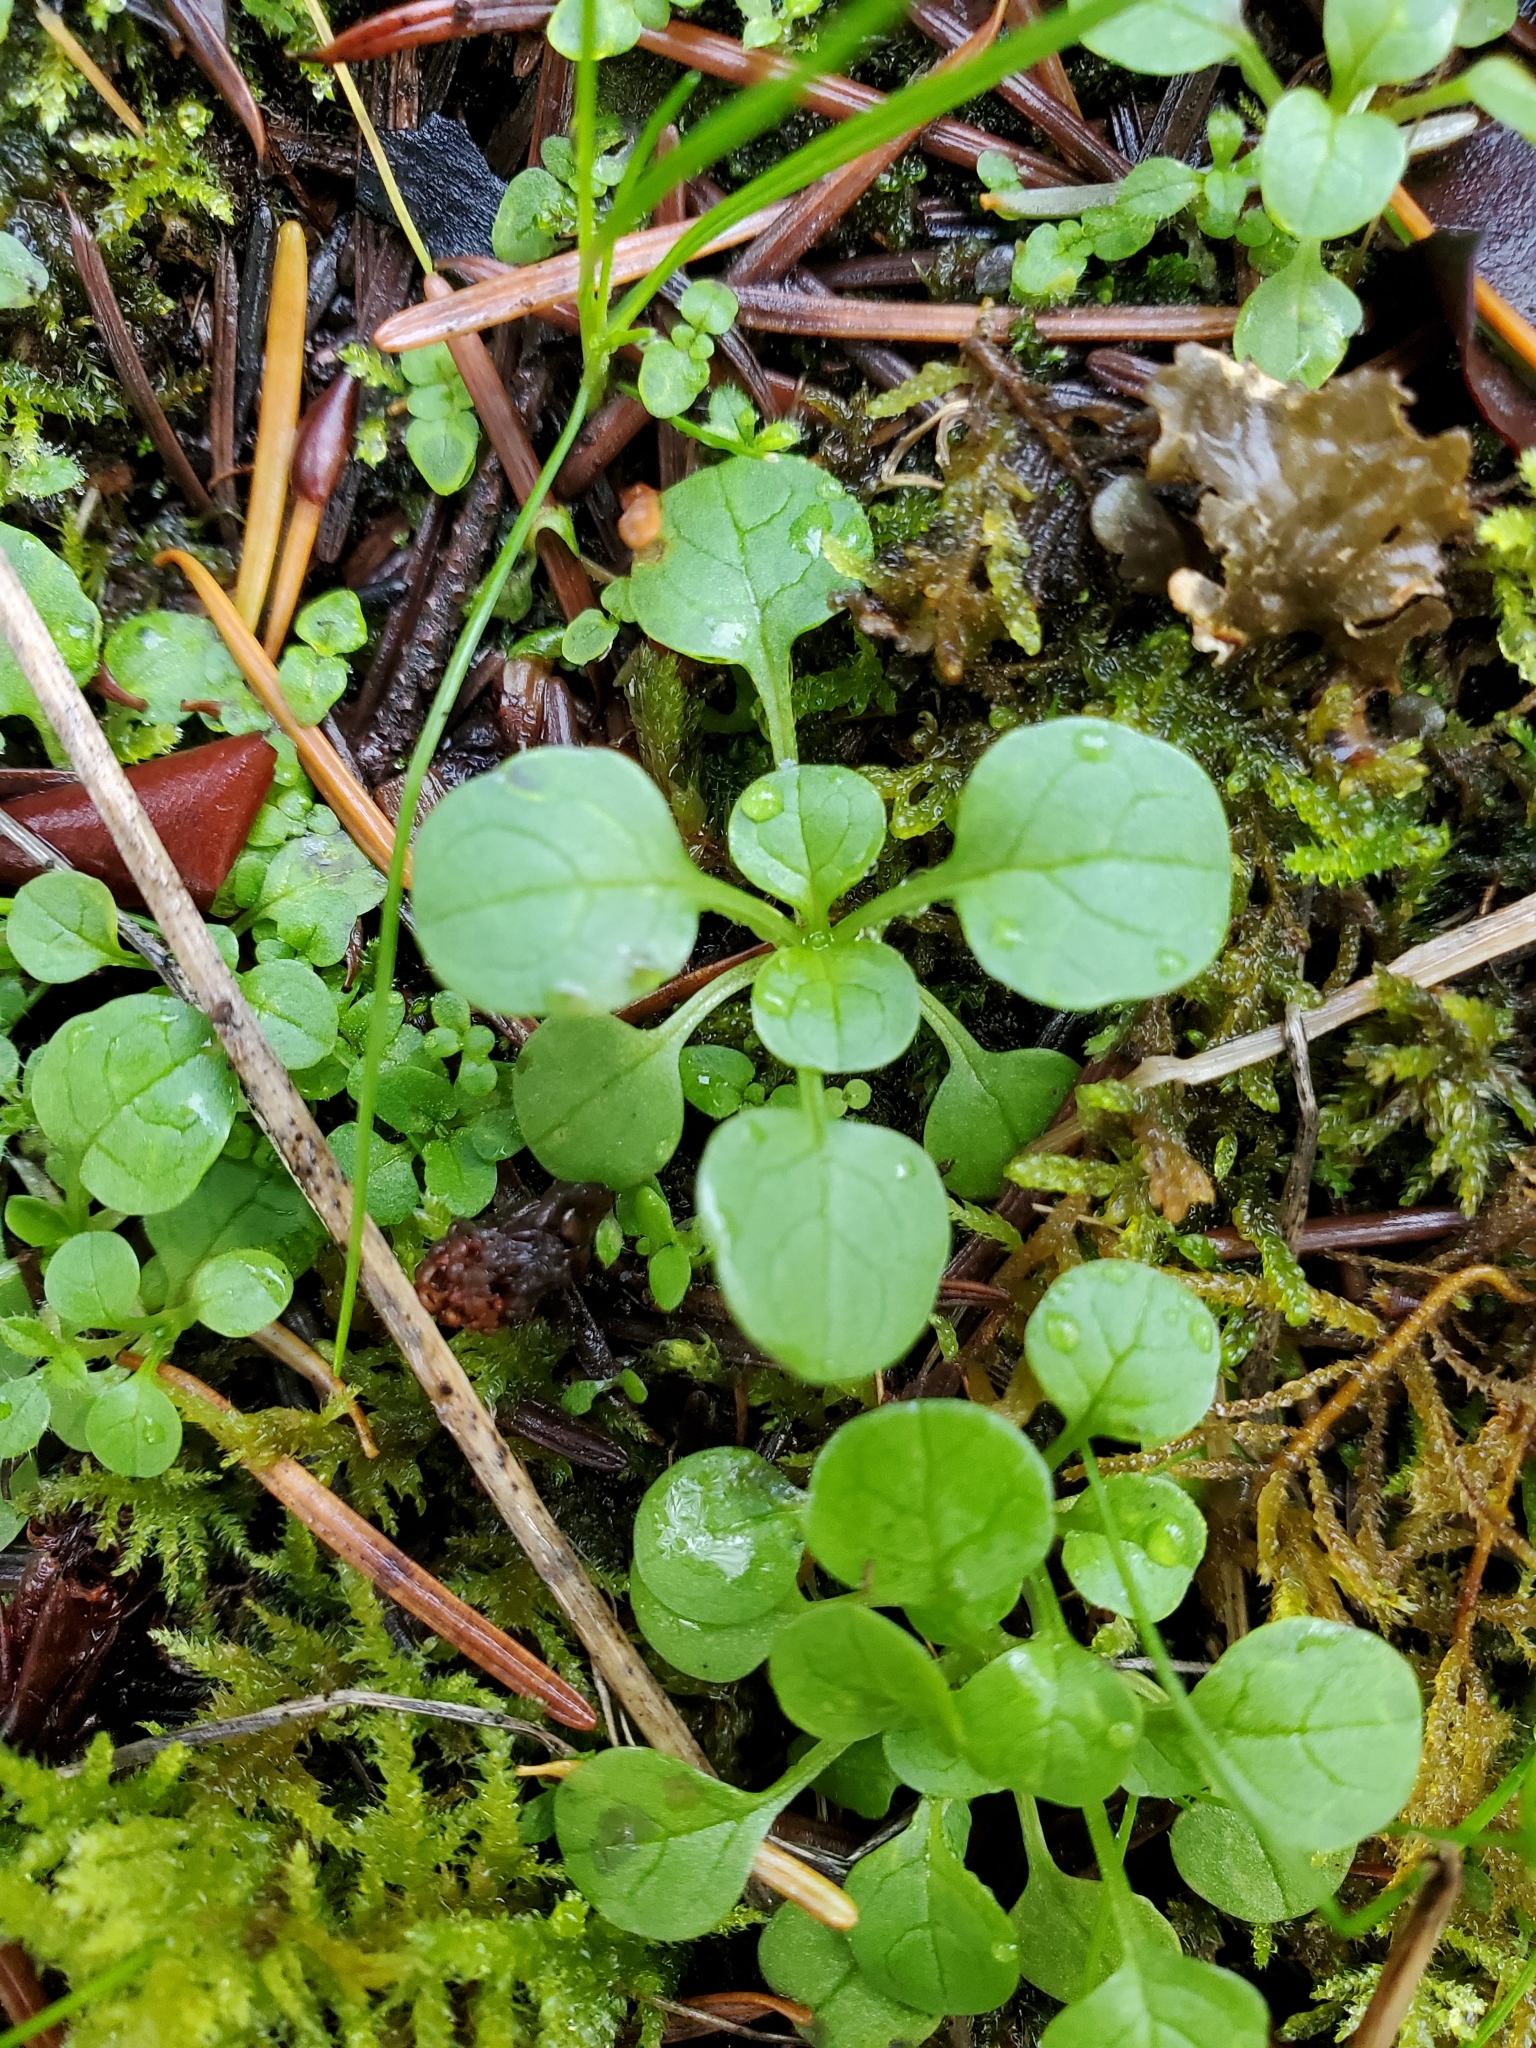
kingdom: Plantae
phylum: Tracheophyta
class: Magnoliopsida
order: Dipsacales
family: Caprifoliaceae
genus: Plectritis
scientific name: Plectritis congesta
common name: Pink plectritis
